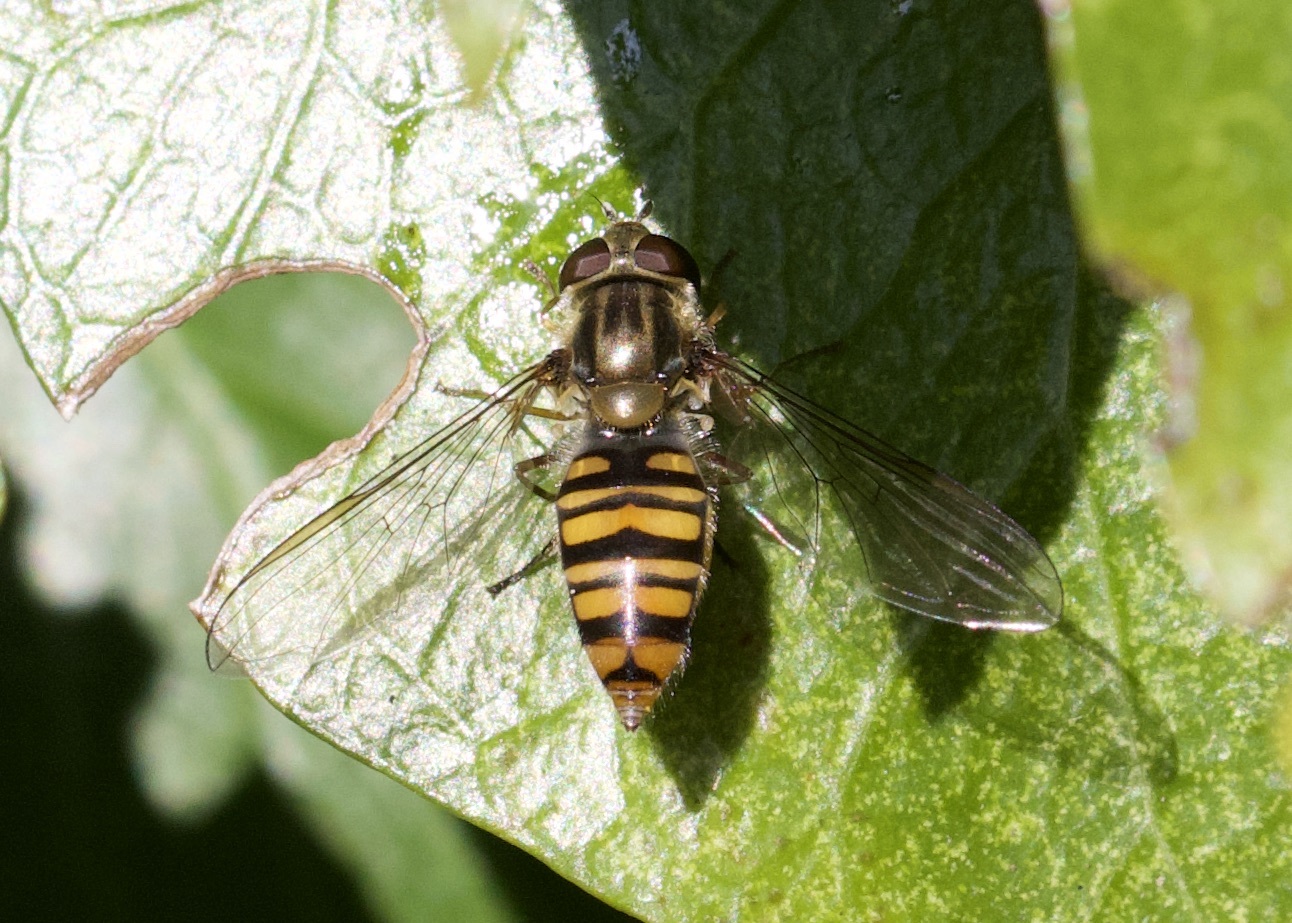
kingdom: Animalia
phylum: Arthropoda
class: Insecta
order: Diptera
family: Syrphidae
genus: Episyrphus
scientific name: Episyrphus balteatus
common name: Marmalade hoverfly
